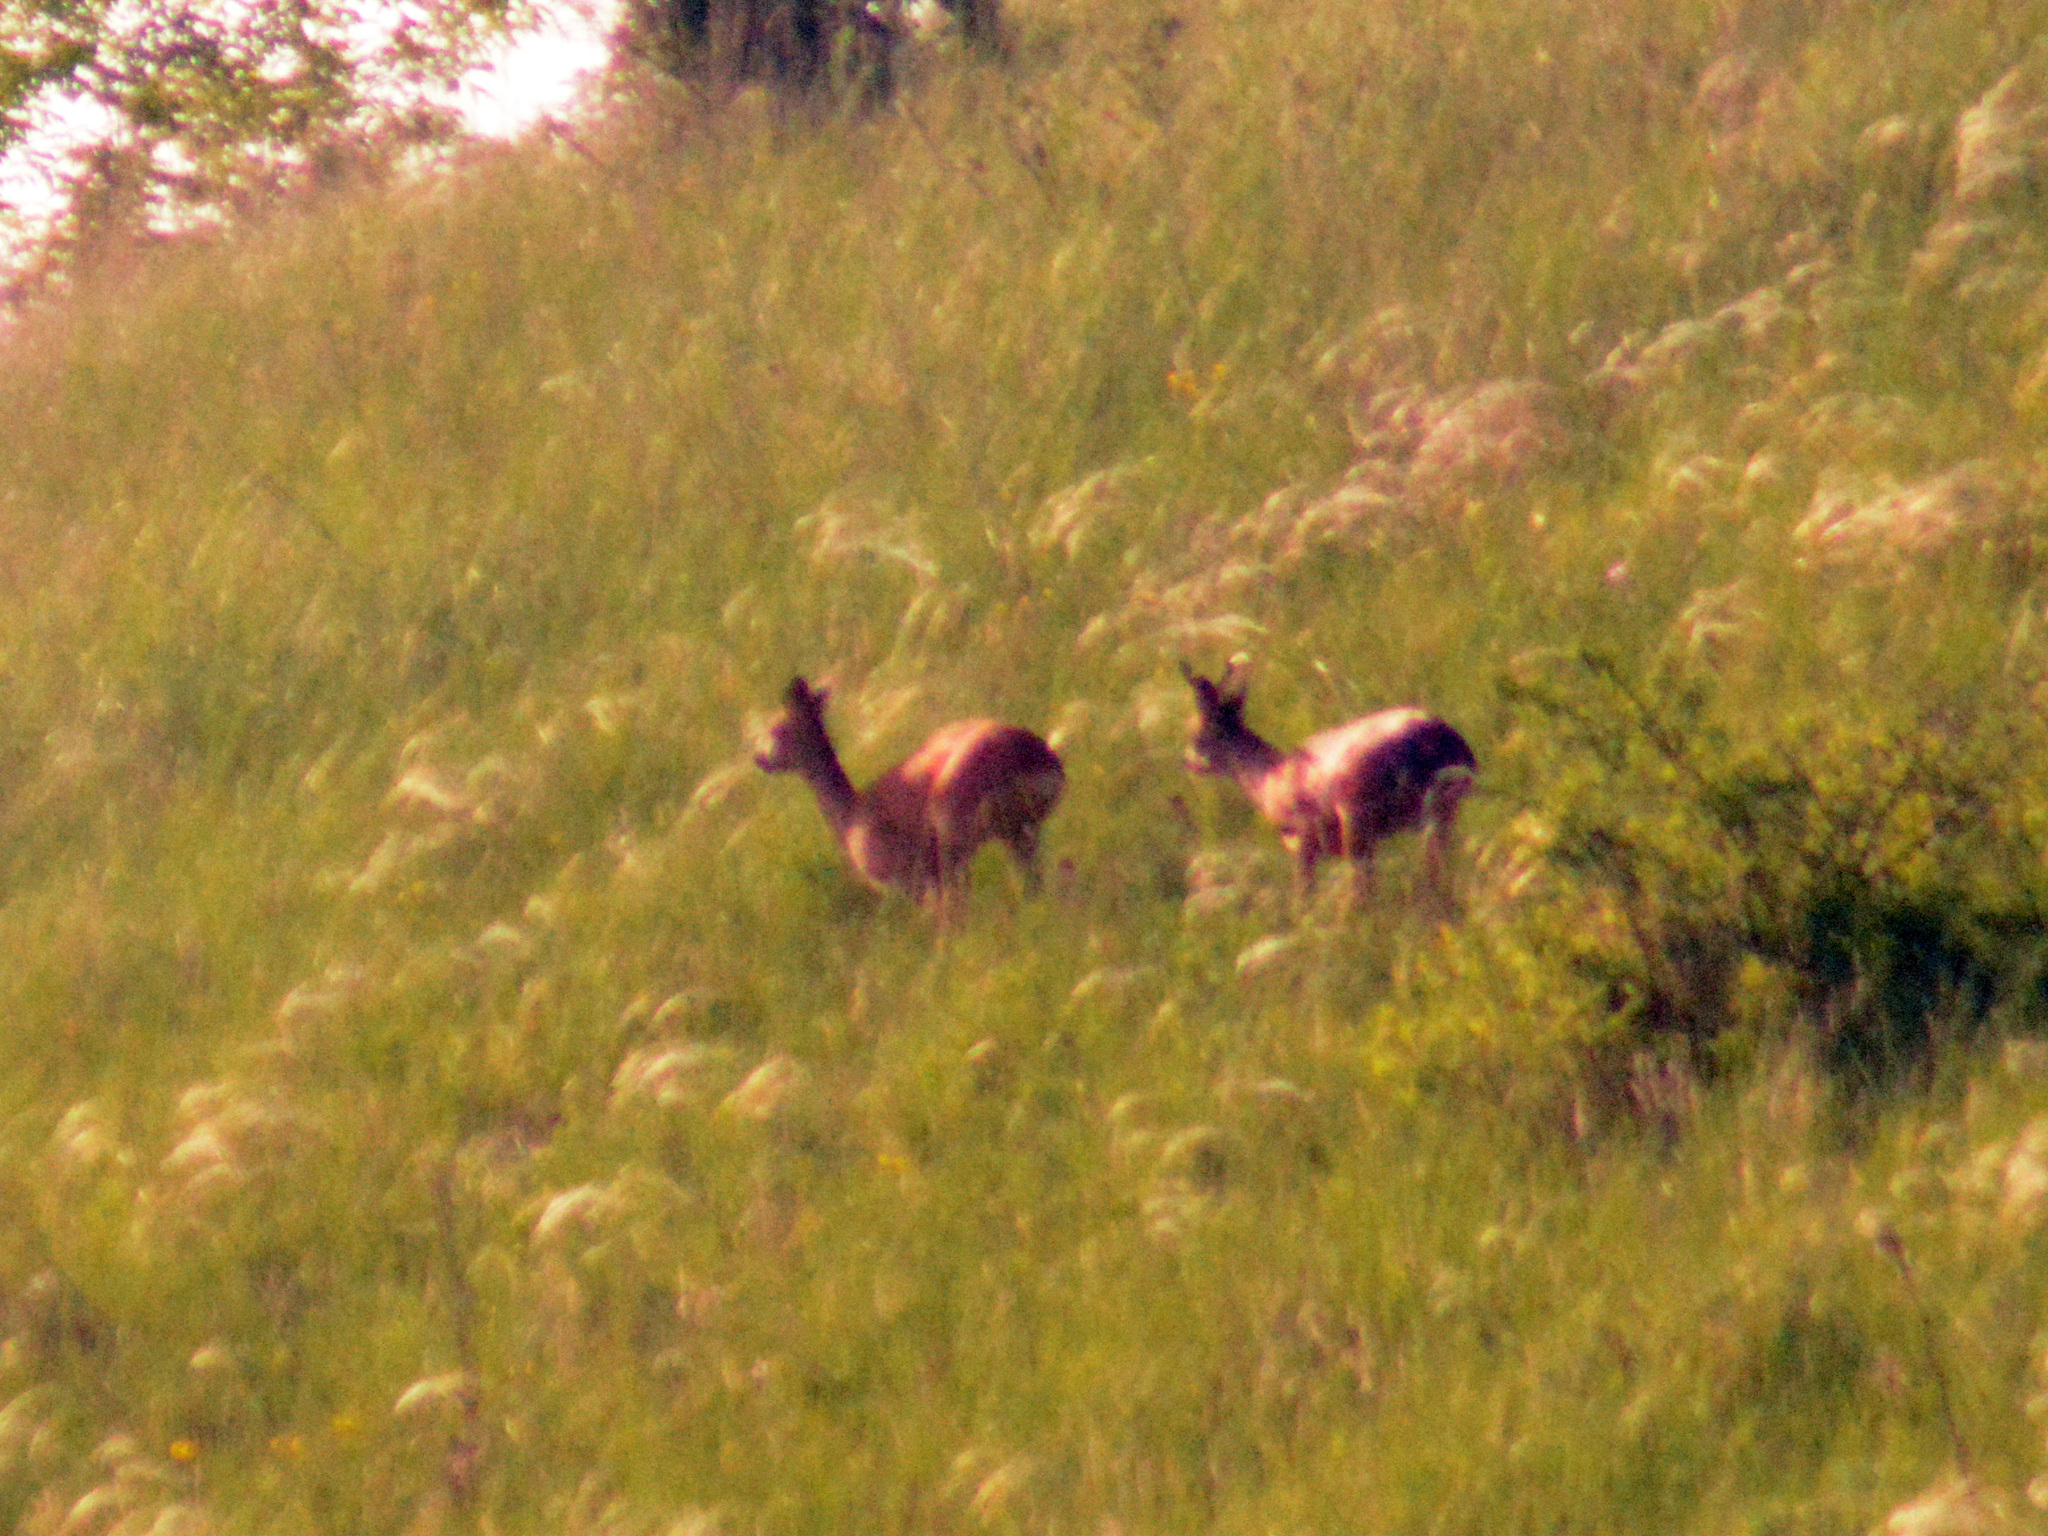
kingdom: Animalia
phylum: Chordata
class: Mammalia
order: Artiodactyla
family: Cervidae
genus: Capreolus
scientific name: Capreolus capreolus
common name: Western roe deer
